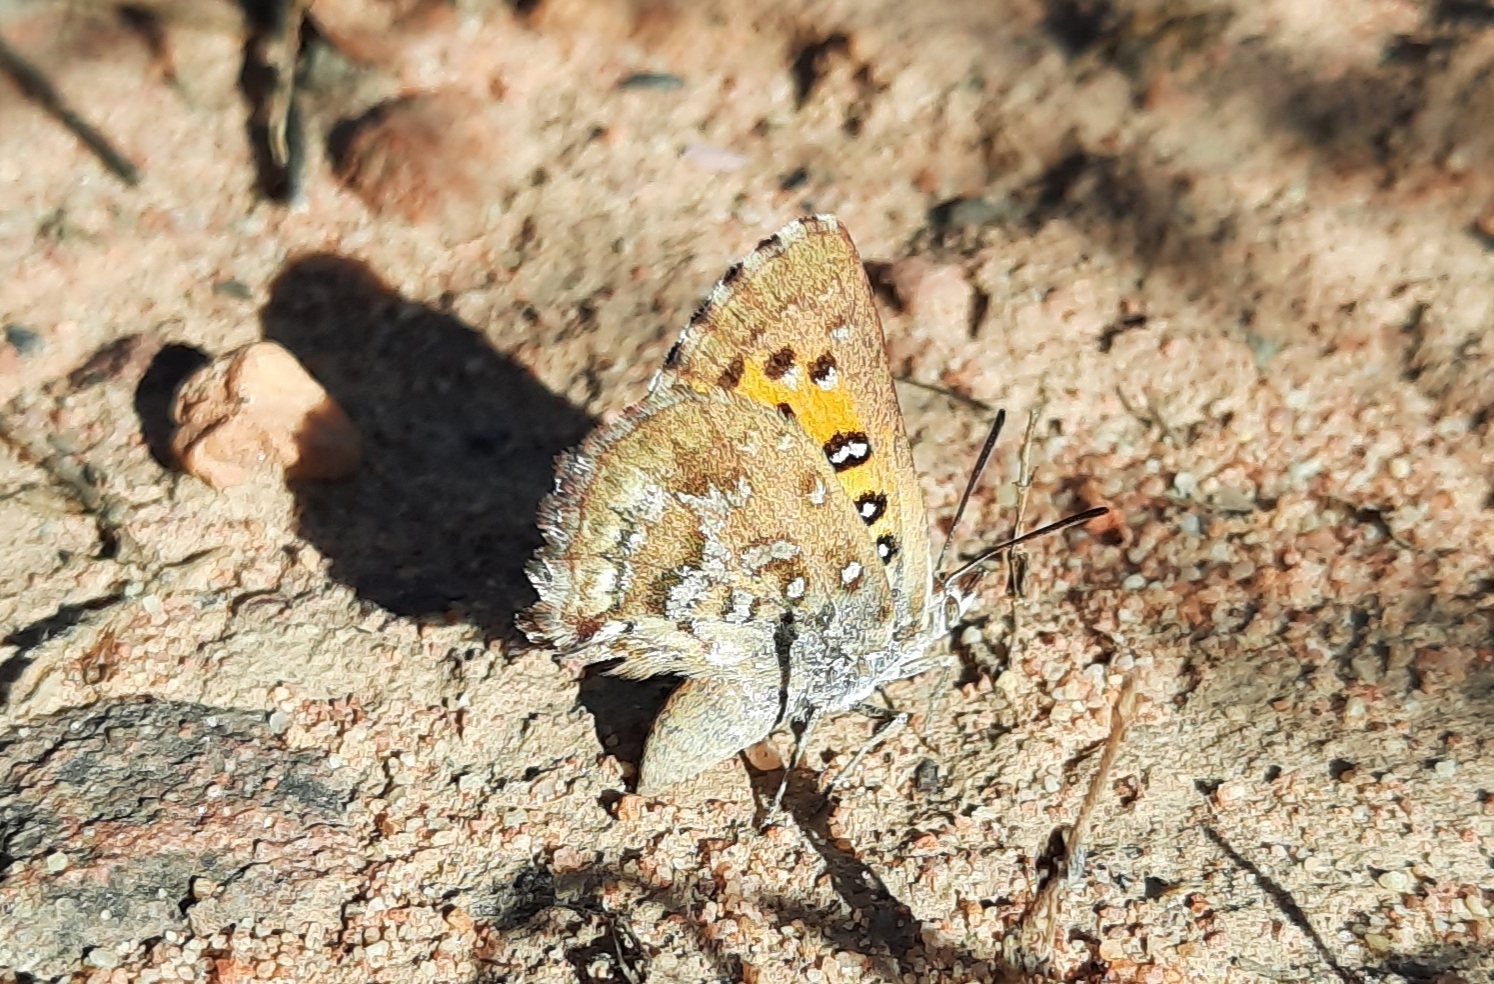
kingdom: Animalia
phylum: Arthropoda
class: Insecta
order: Lepidoptera
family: Lycaenidae
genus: Aloeides
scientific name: Aloeides thyra
